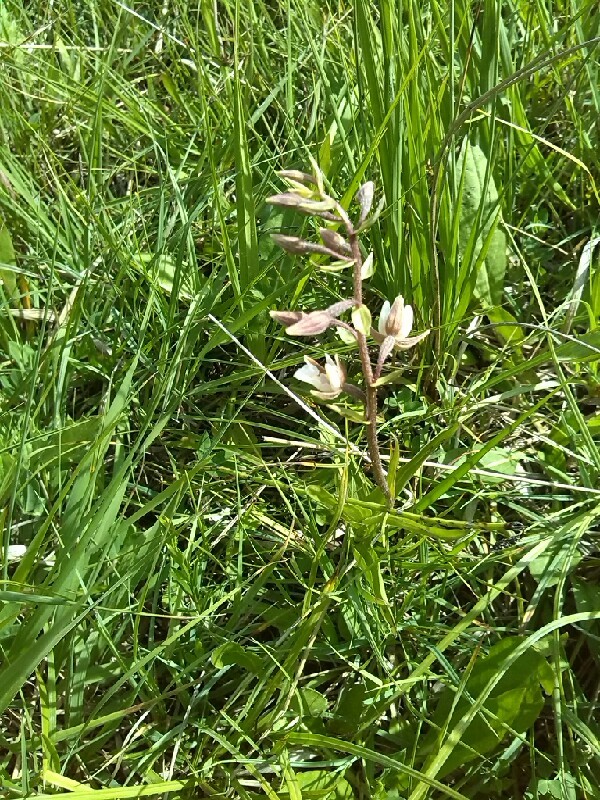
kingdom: Plantae
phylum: Tracheophyta
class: Liliopsida
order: Asparagales
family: Orchidaceae
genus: Epipactis
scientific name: Epipactis palustris
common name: Marsh helleborine
